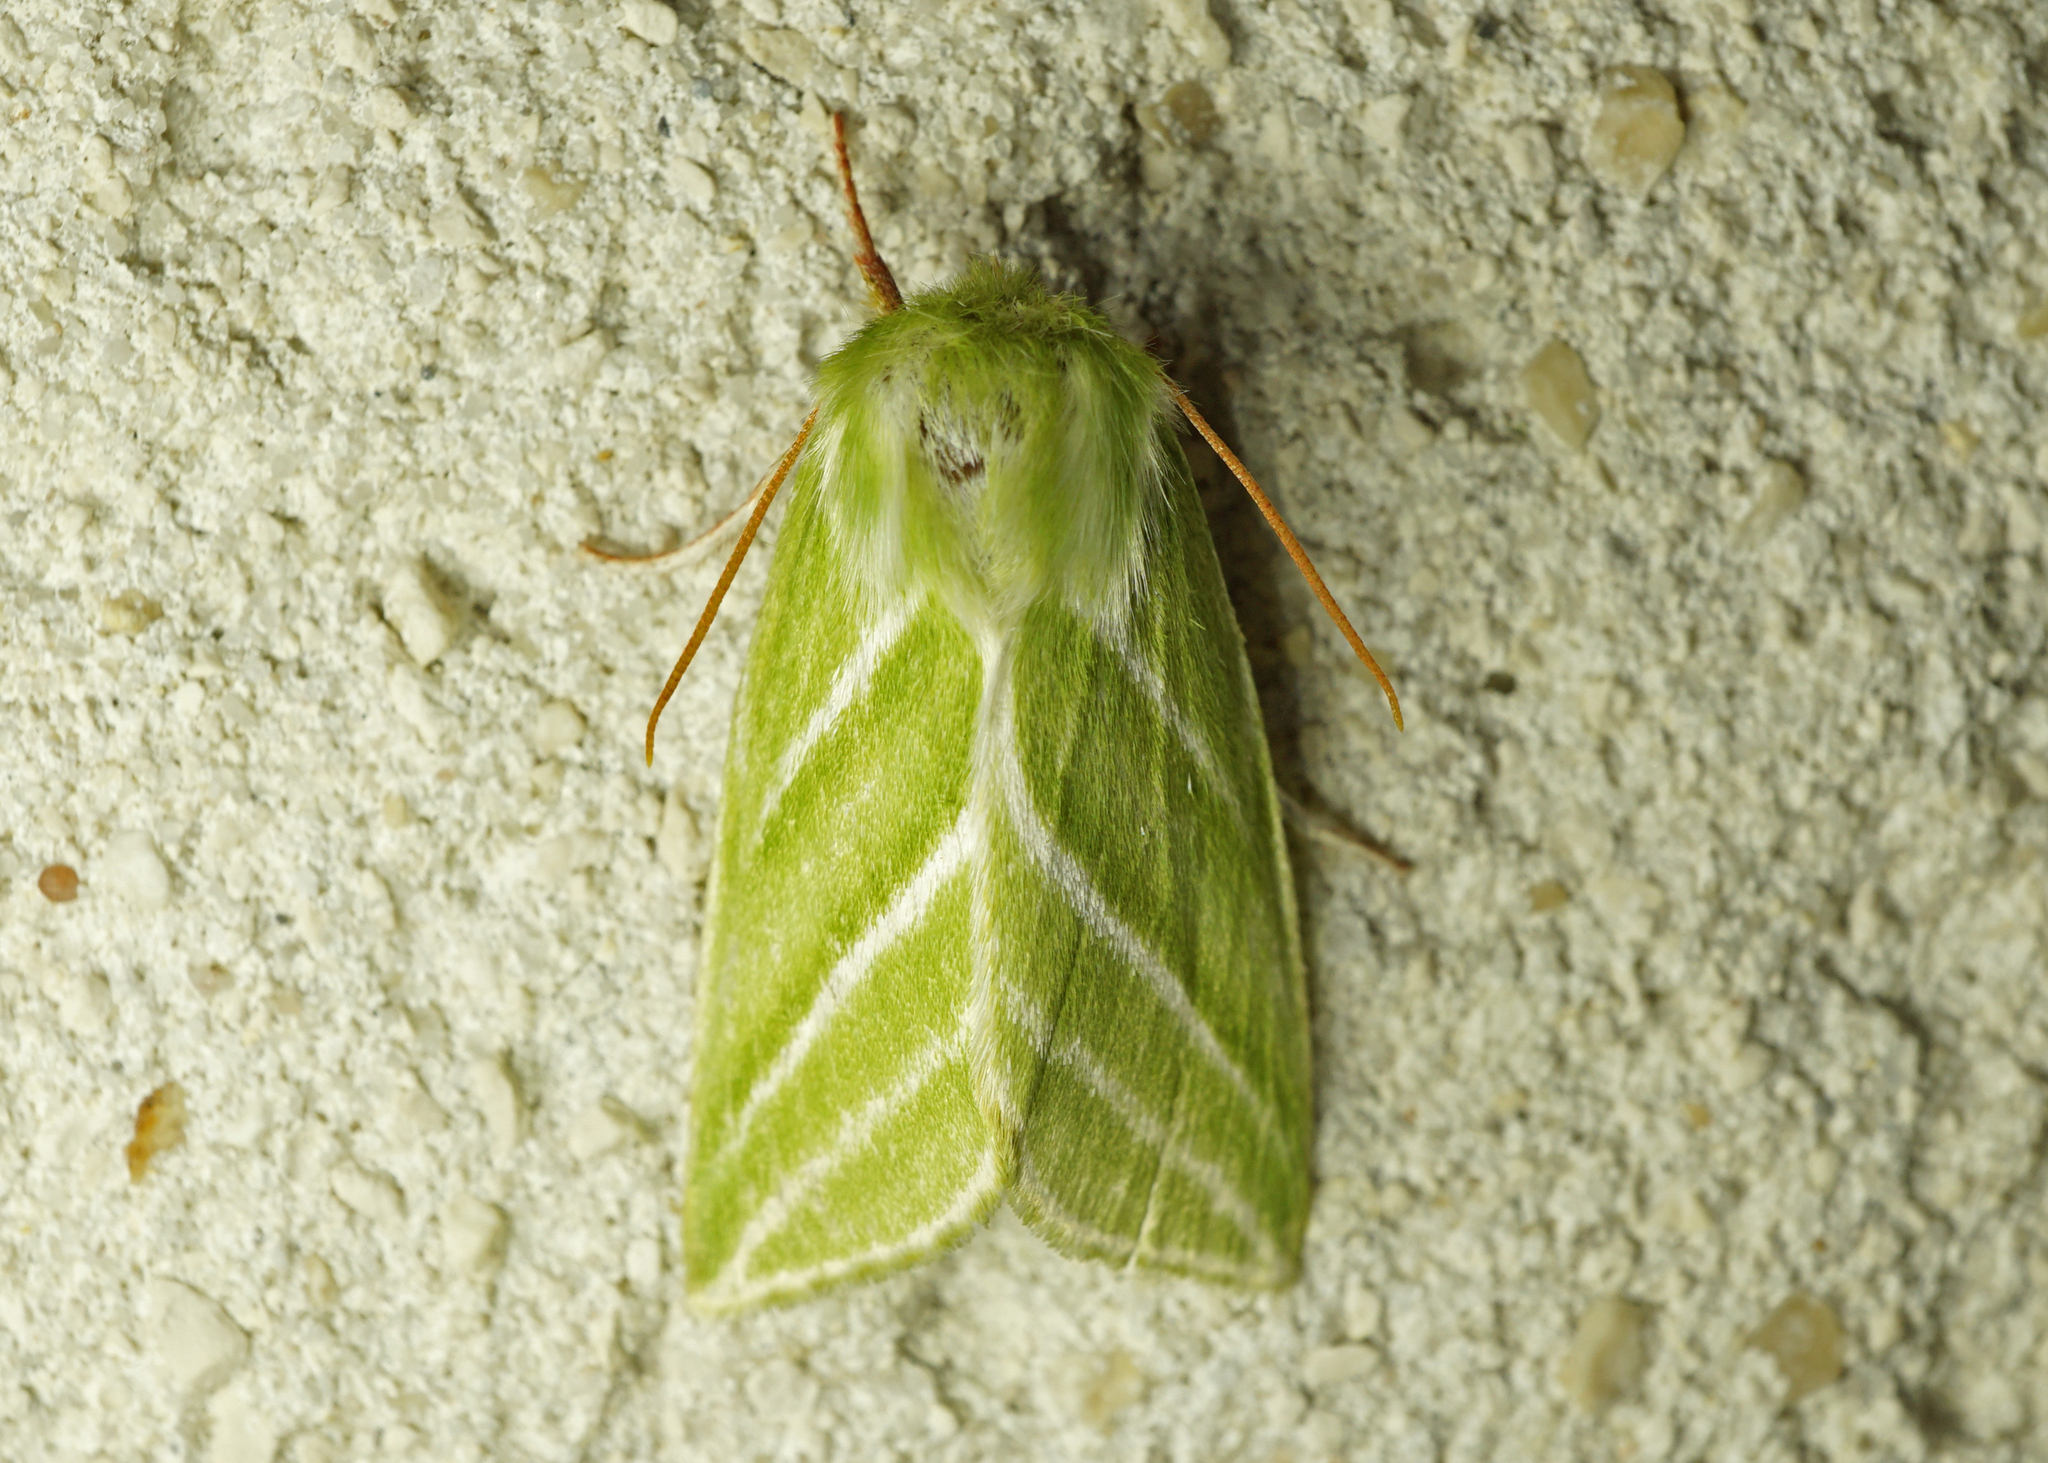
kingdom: Animalia
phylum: Arthropoda
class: Insecta
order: Lepidoptera
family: Nolidae
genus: Pseudoips
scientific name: Pseudoips prasinana
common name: Green silver-lines
